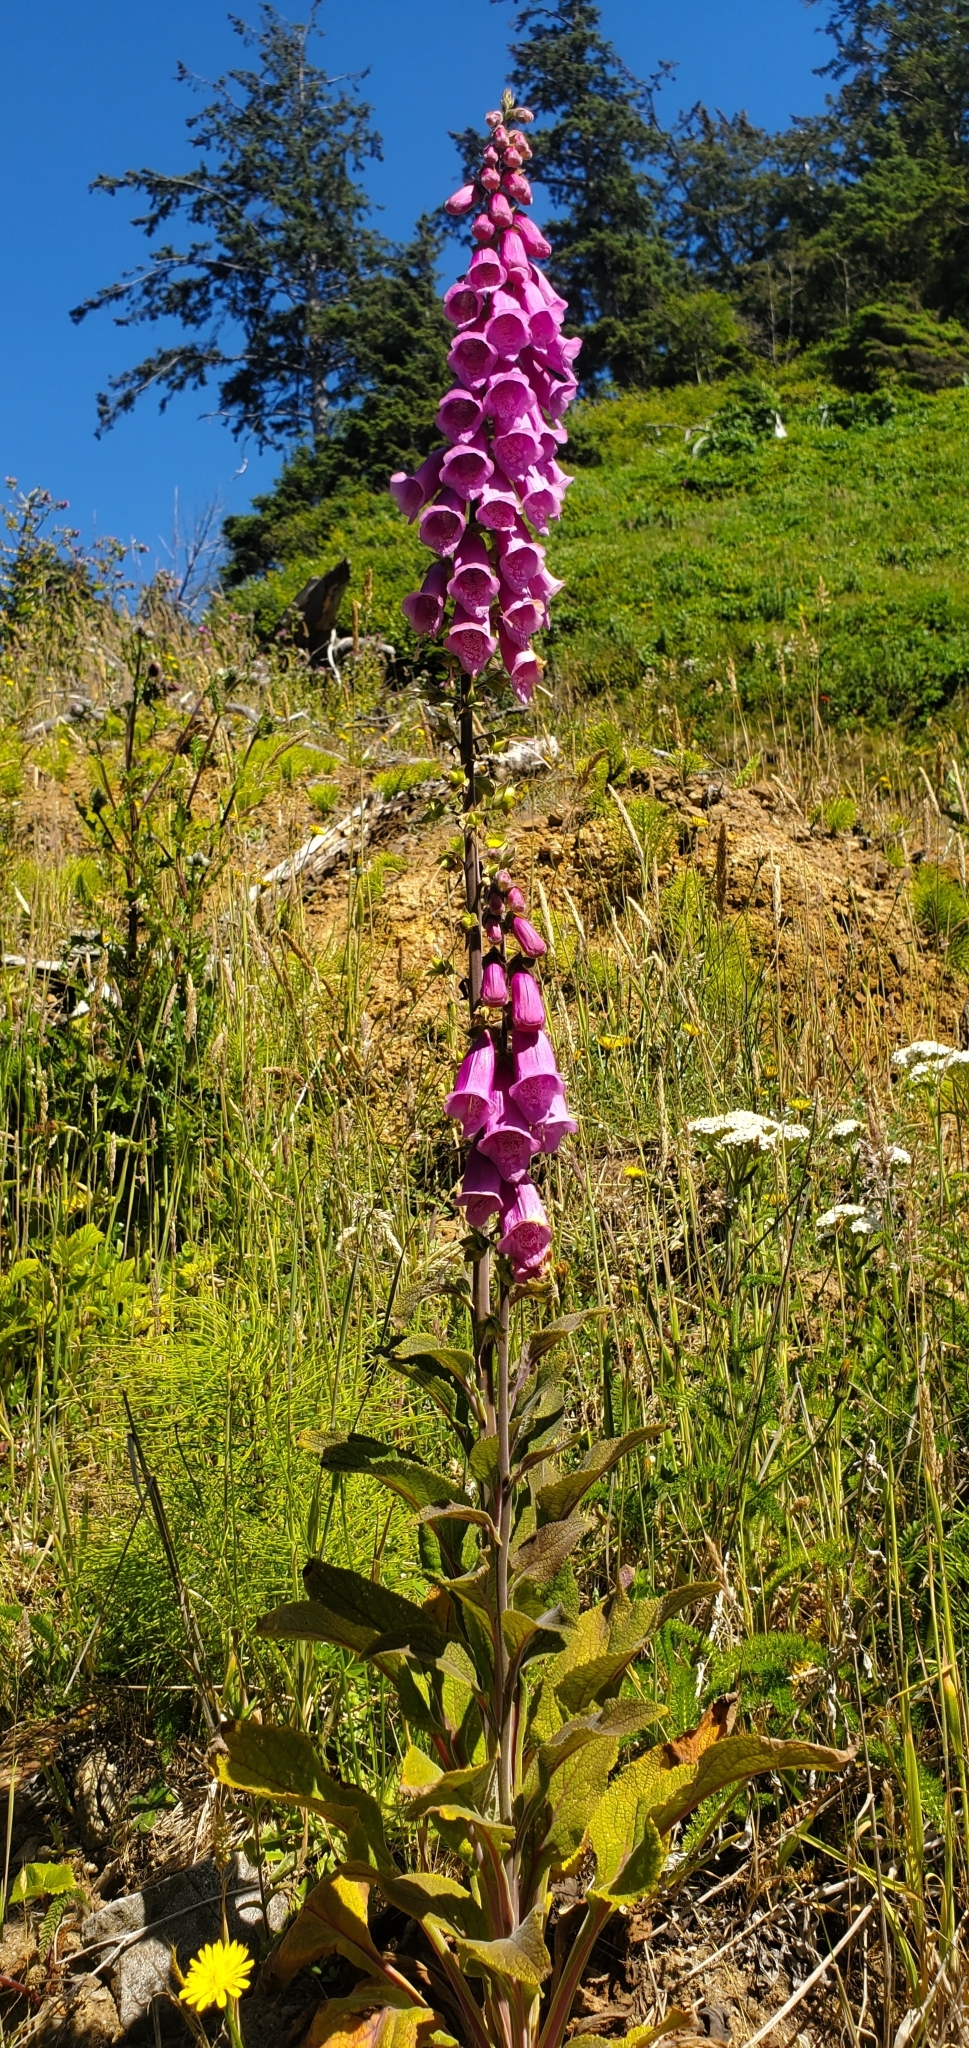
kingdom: Plantae
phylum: Tracheophyta
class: Magnoliopsida
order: Lamiales
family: Plantaginaceae
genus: Digitalis
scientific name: Digitalis purpurea
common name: Foxglove
